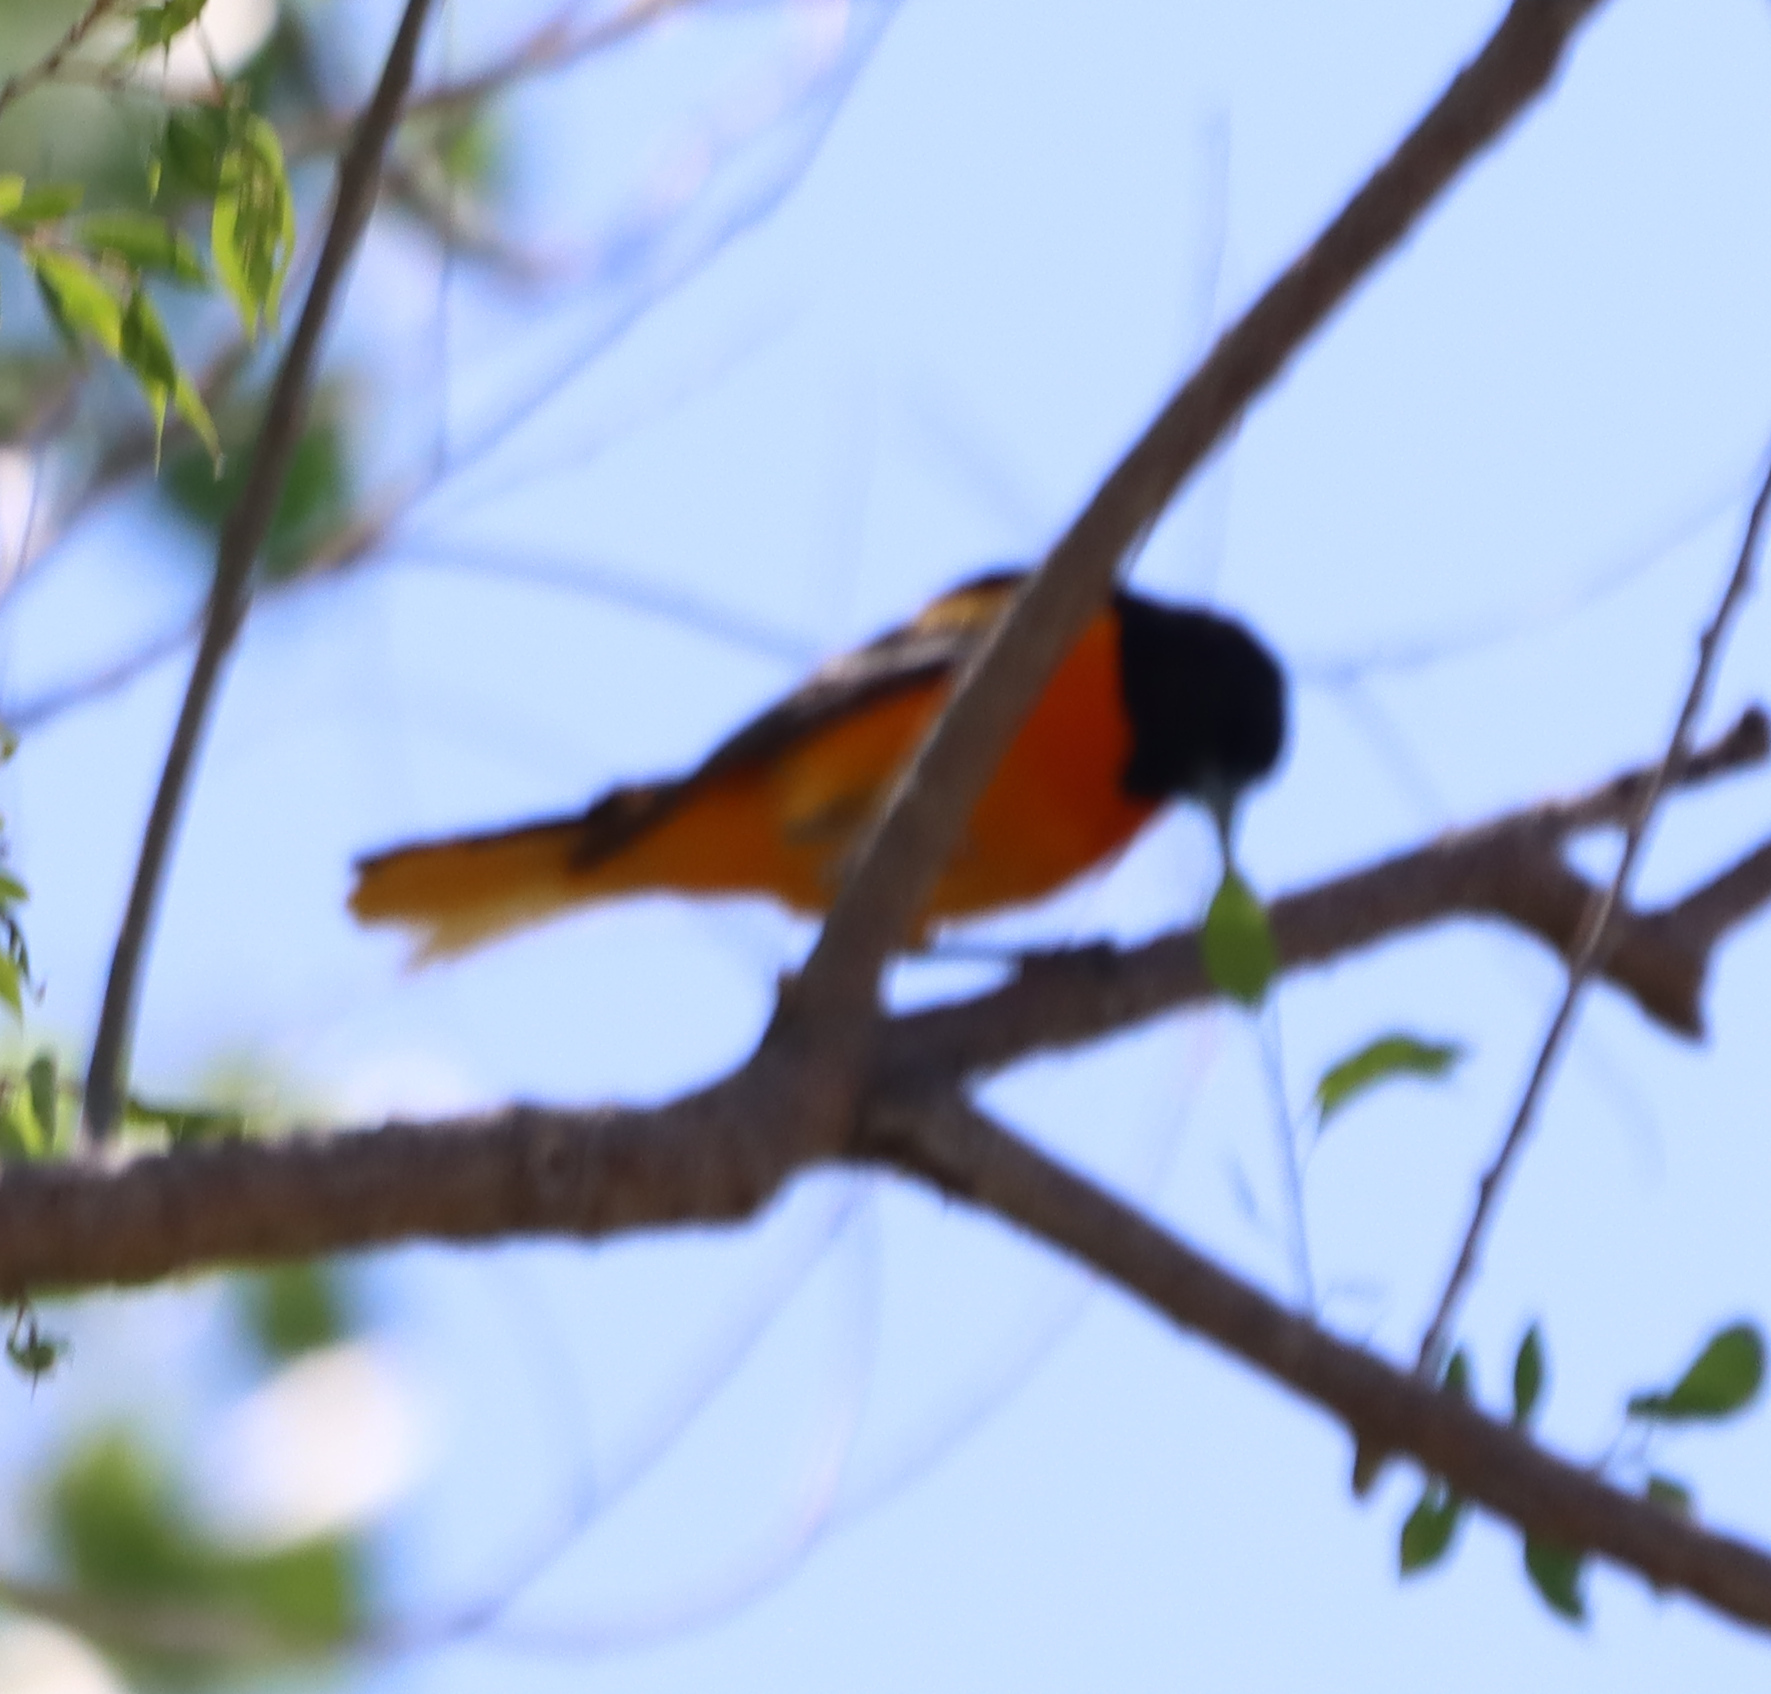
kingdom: Animalia
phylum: Chordata
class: Aves
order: Passeriformes
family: Icteridae
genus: Icterus
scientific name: Icterus galbula
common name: Baltimore oriole
